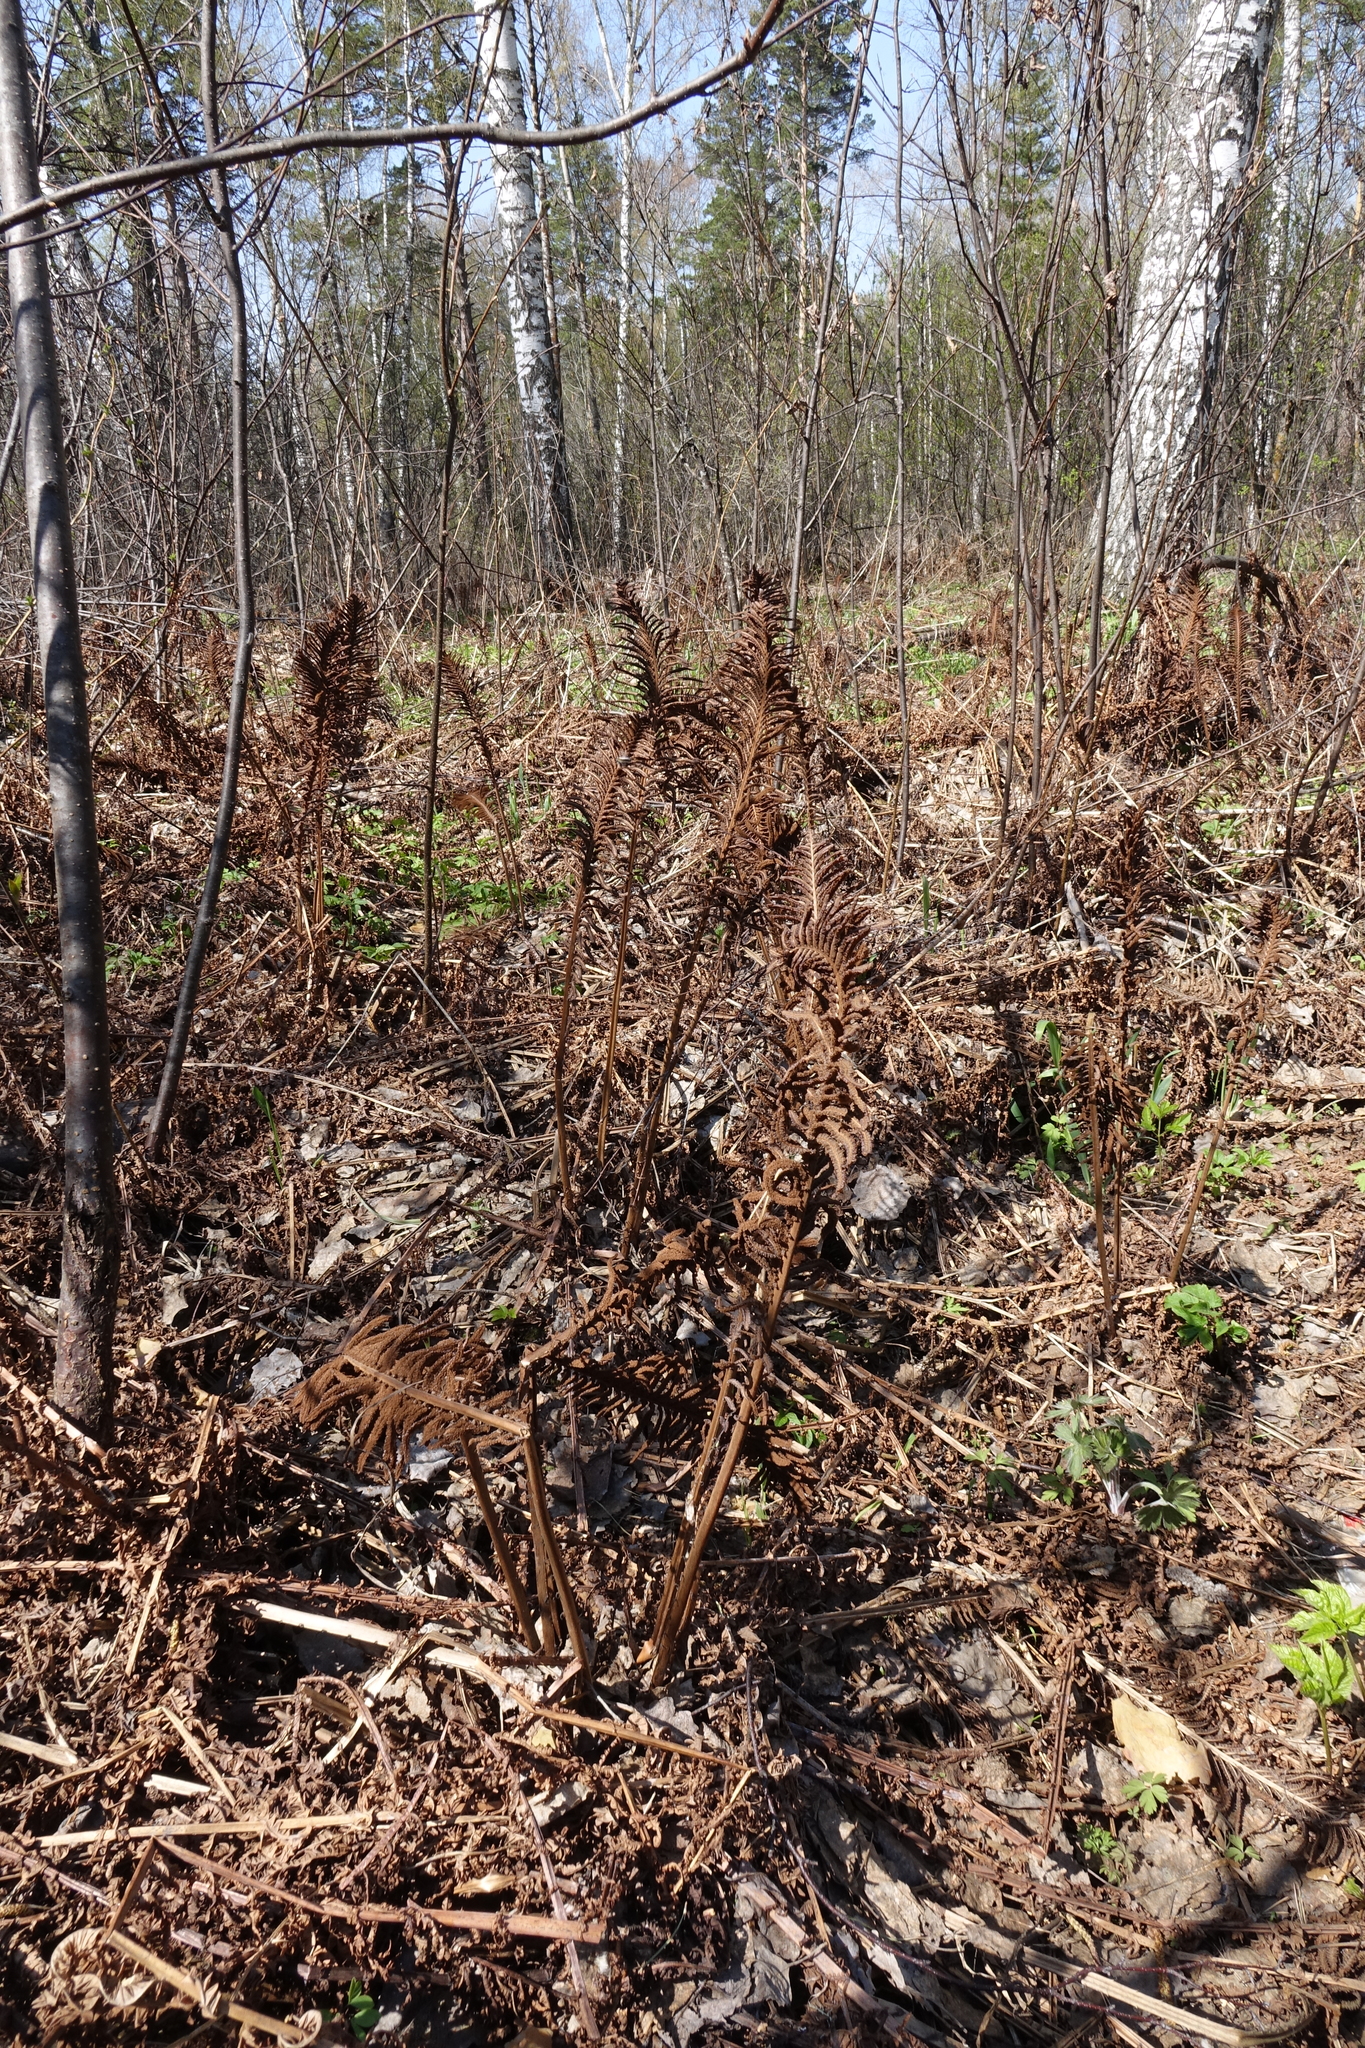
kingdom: Plantae
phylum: Tracheophyta
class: Polypodiopsida
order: Polypodiales
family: Onocleaceae
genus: Matteuccia
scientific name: Matteuccia struthiopteris
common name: Ostrich fern
